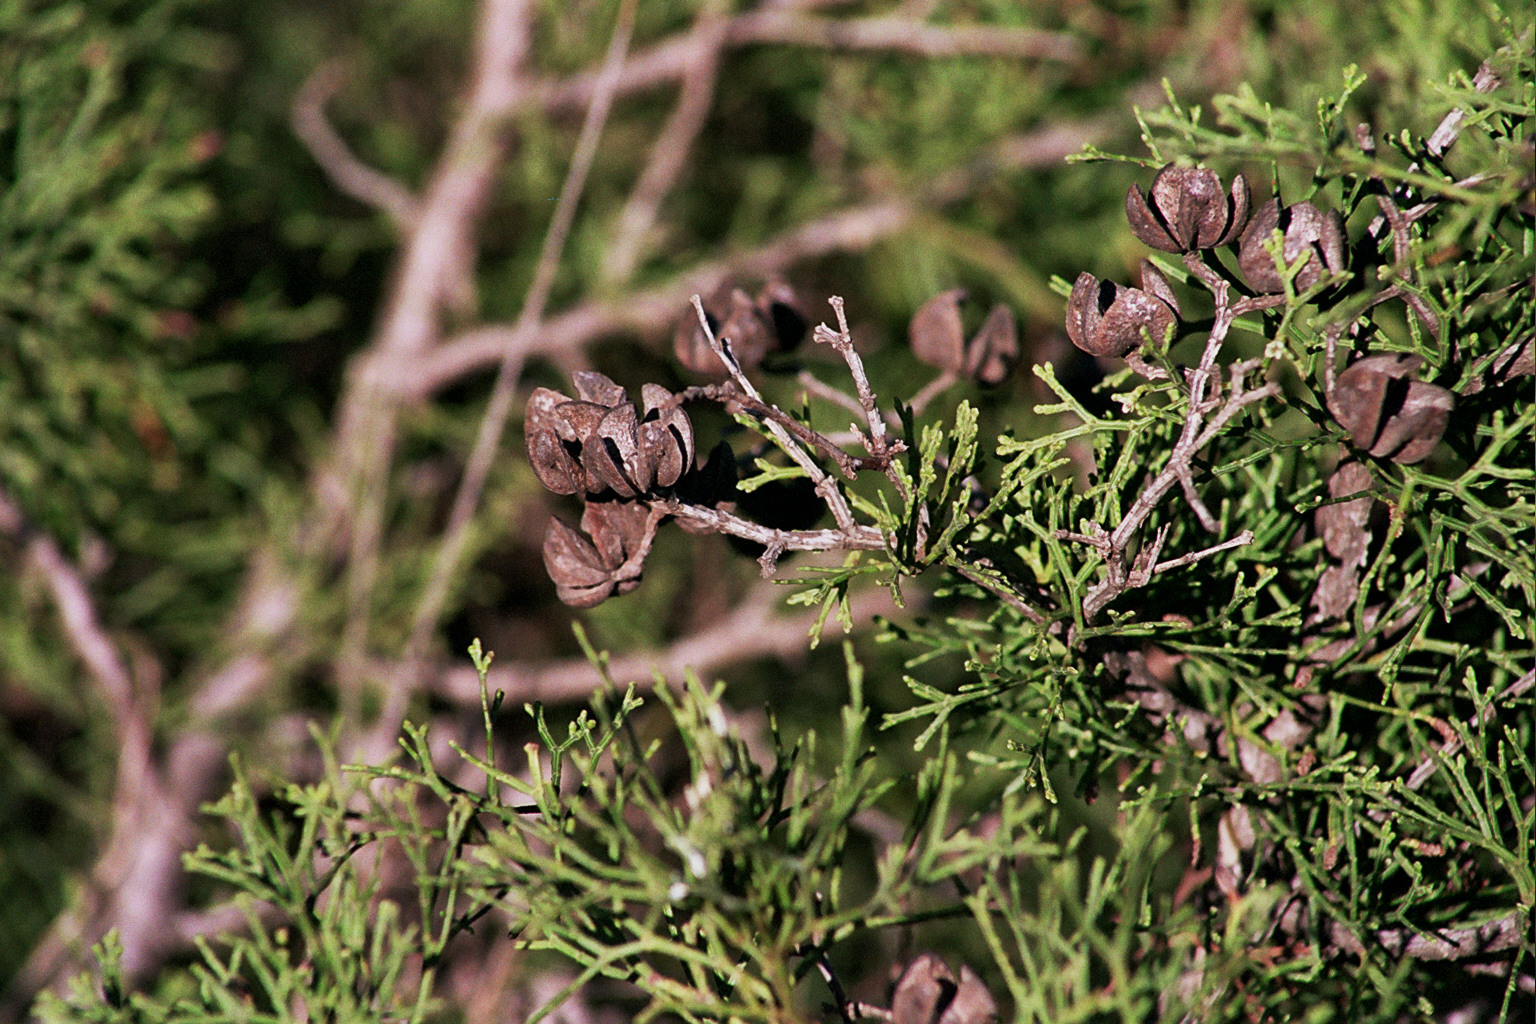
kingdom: Plantae
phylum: Tracheophyta
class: Pinopsida
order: Pinales
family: Cupressaceae
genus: Tetraclinis
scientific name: Tetraclinis articulata
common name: Sandarac
